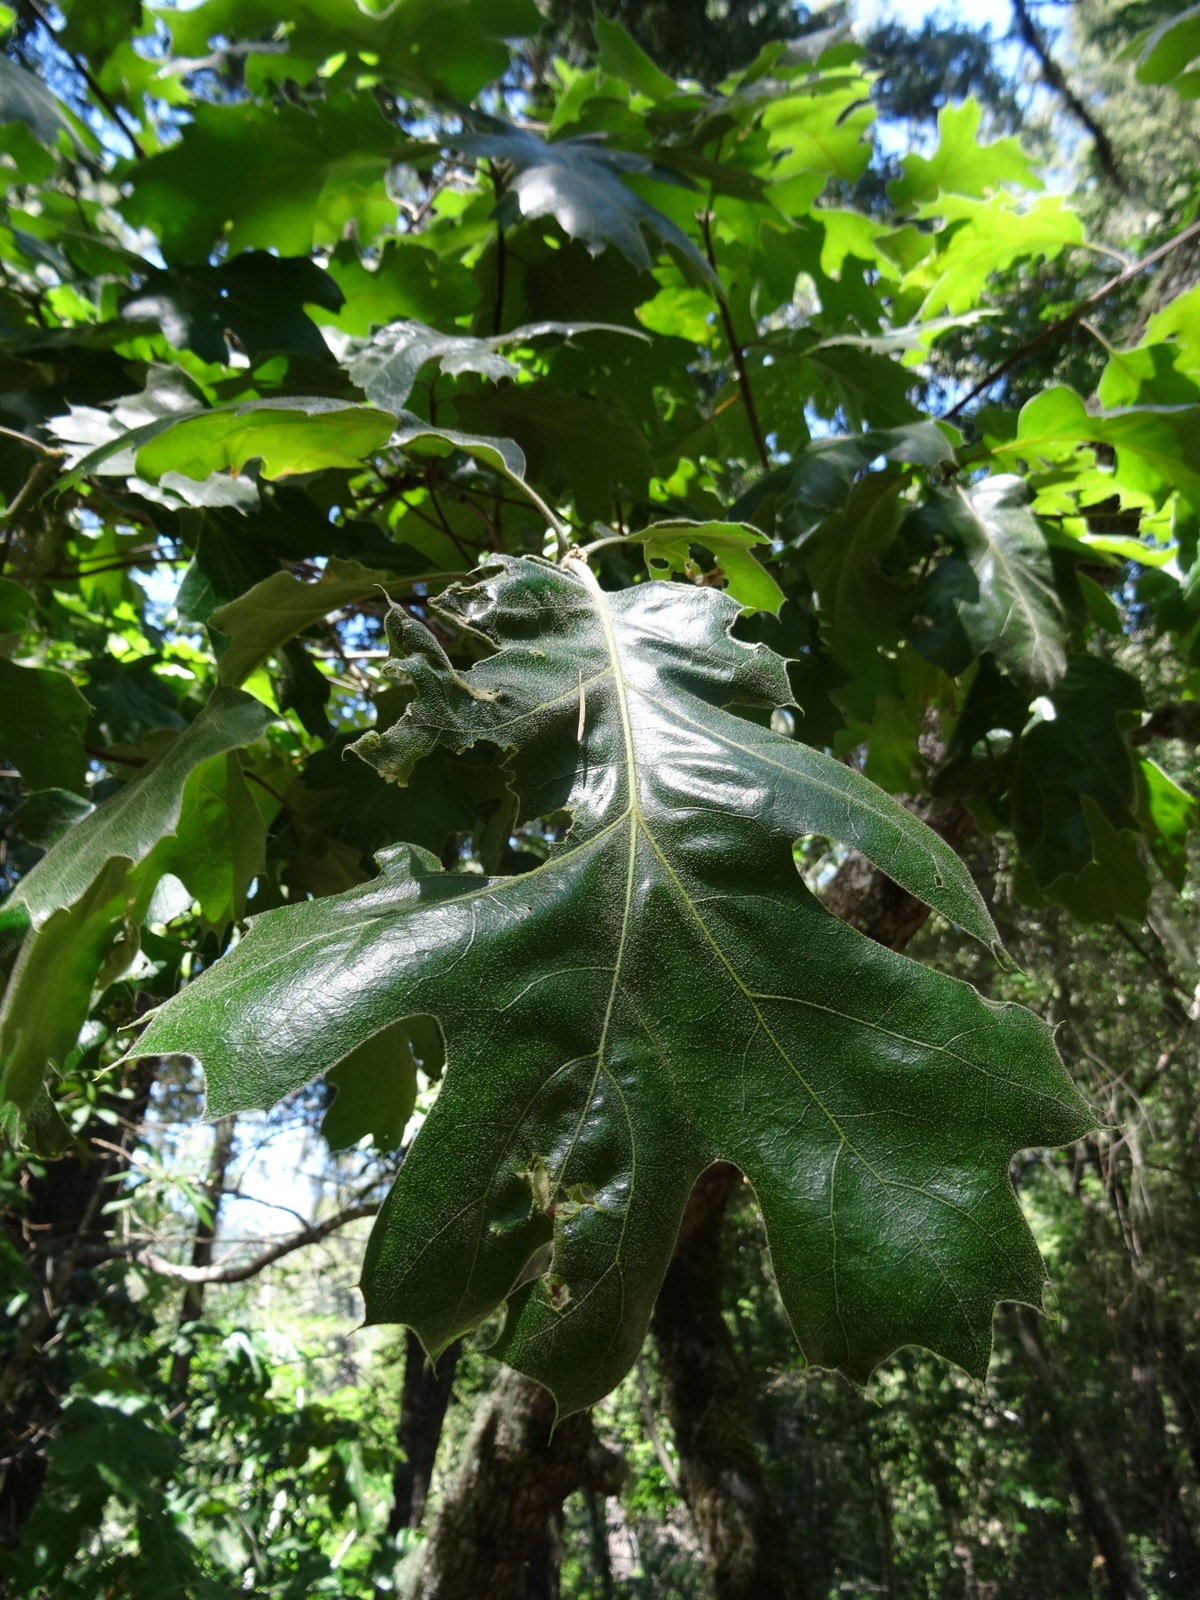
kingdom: Plantae
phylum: Tracheophyta
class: Magnoliopsida
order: Fagales
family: Fagaceae
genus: Quercus
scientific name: Quercus kelloggii
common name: California black oak
